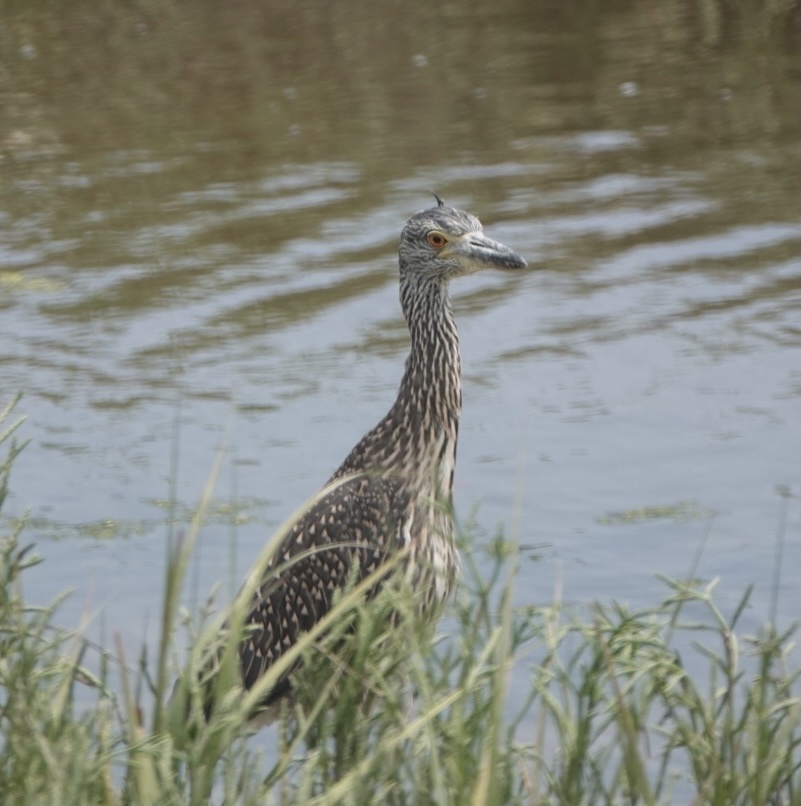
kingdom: Animalia
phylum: Chordata
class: Aves
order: Pelecaniformes
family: Ardeidae
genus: Nyctanassa
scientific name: Nyctanassa violacea
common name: Yellow-crowned night heron
